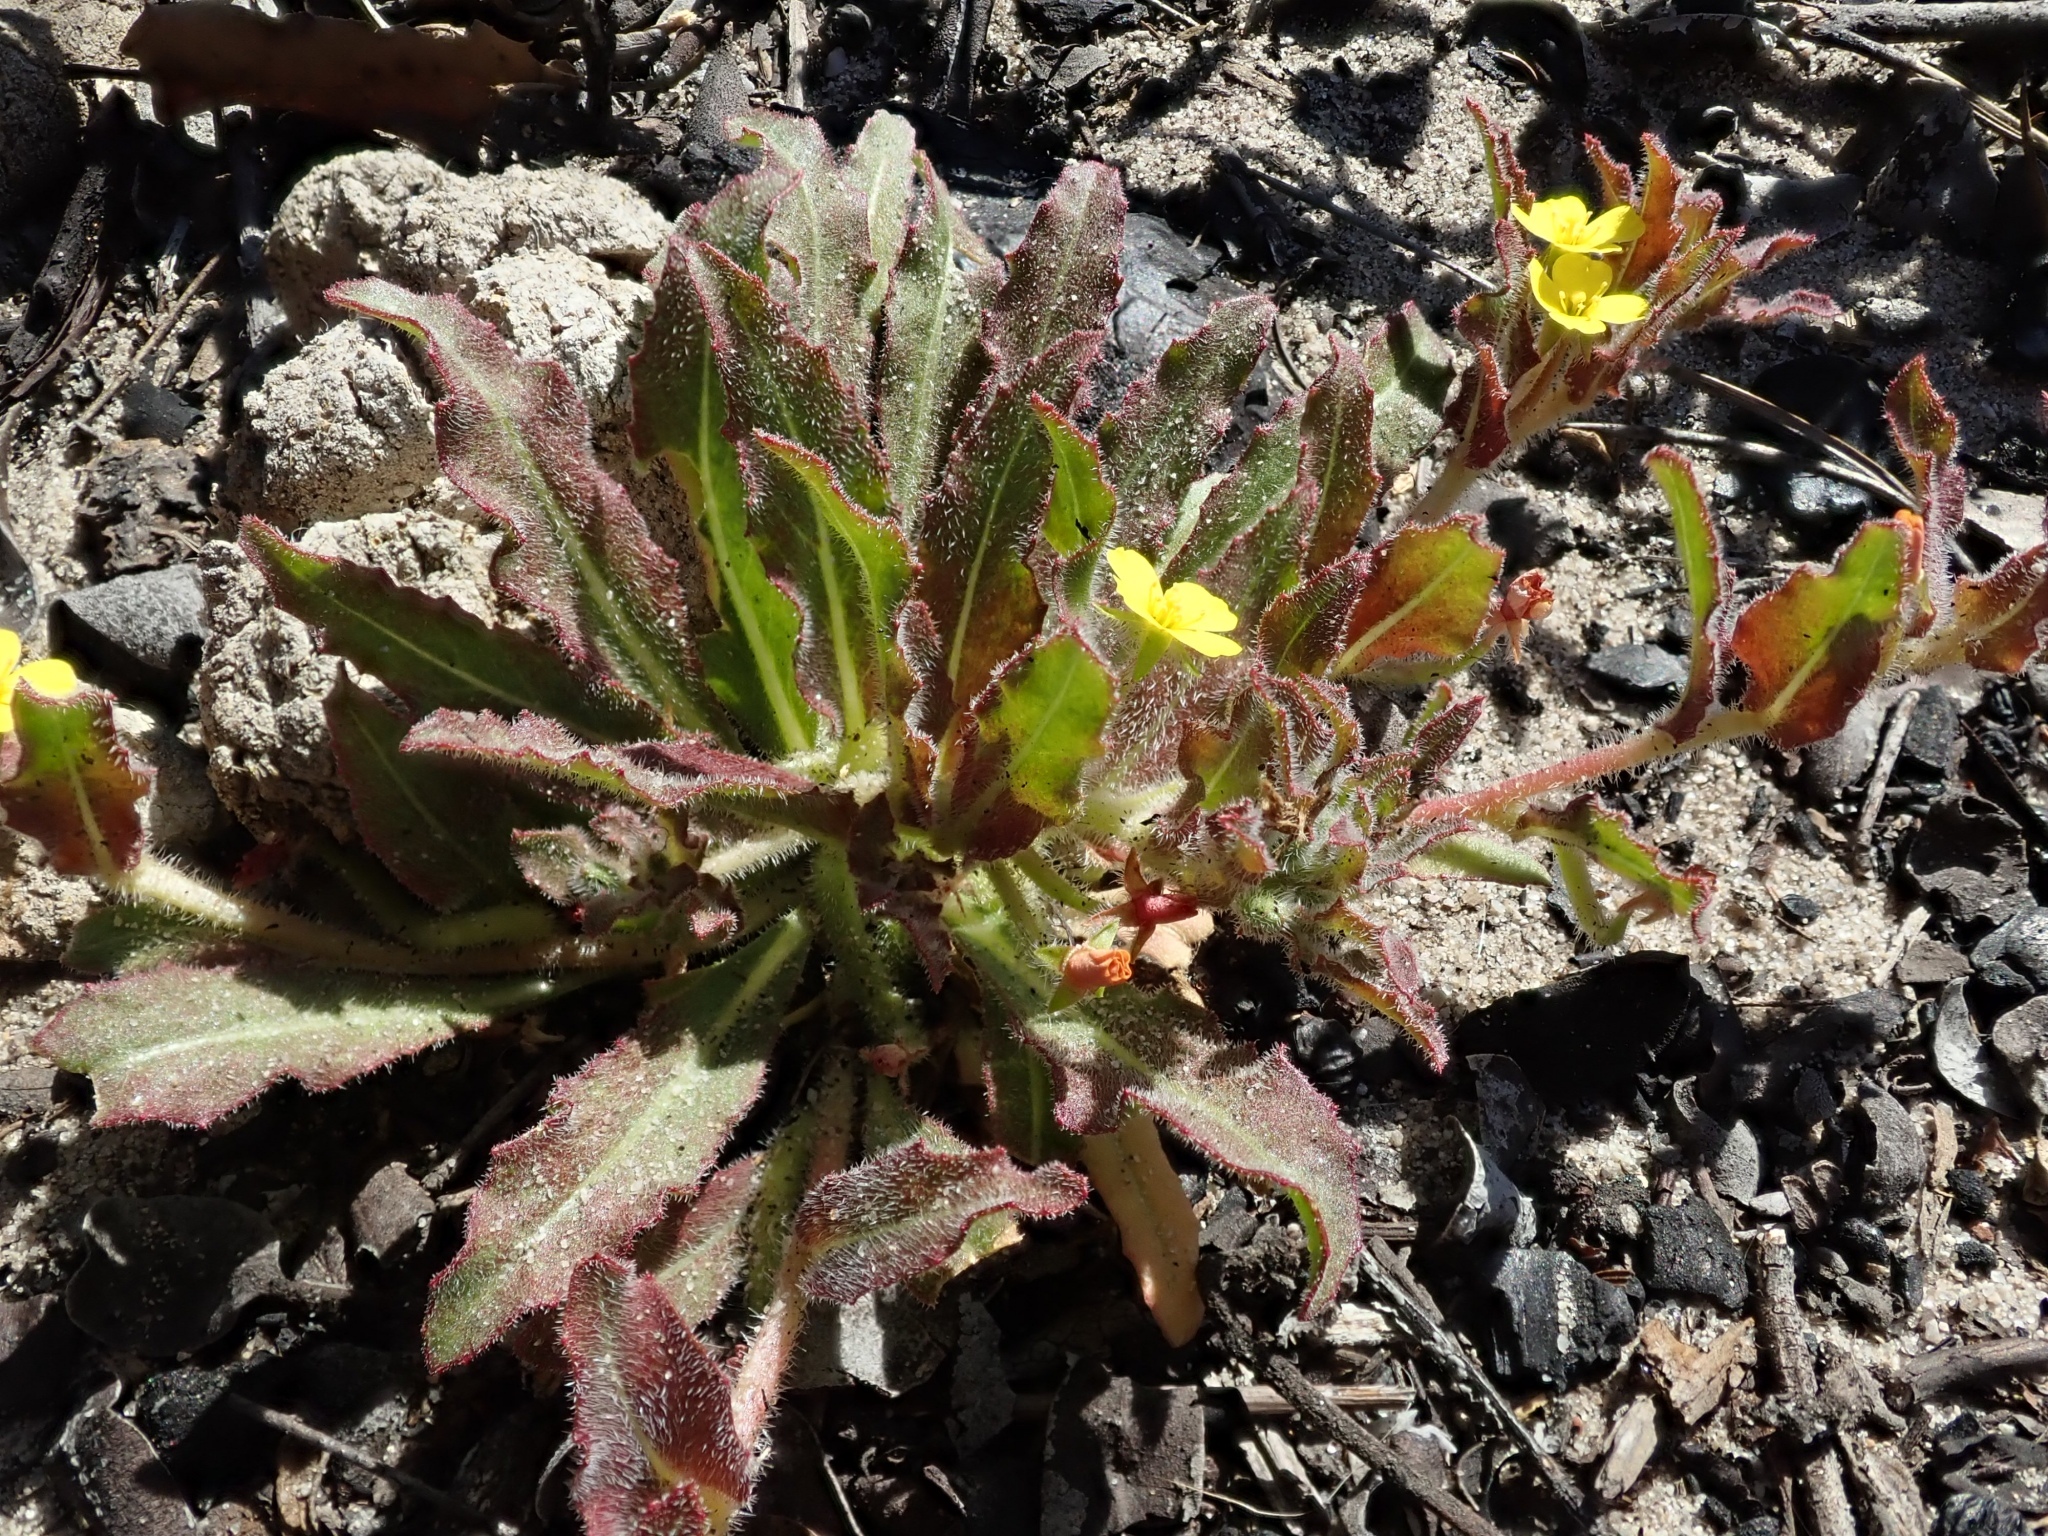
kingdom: Plantae
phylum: Tracheophyta
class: Magnoliopsida
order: Myrtales
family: Onagraceae
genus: Camissoniopsis
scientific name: Camissoniopsis micrantha
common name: Miniature suncup
